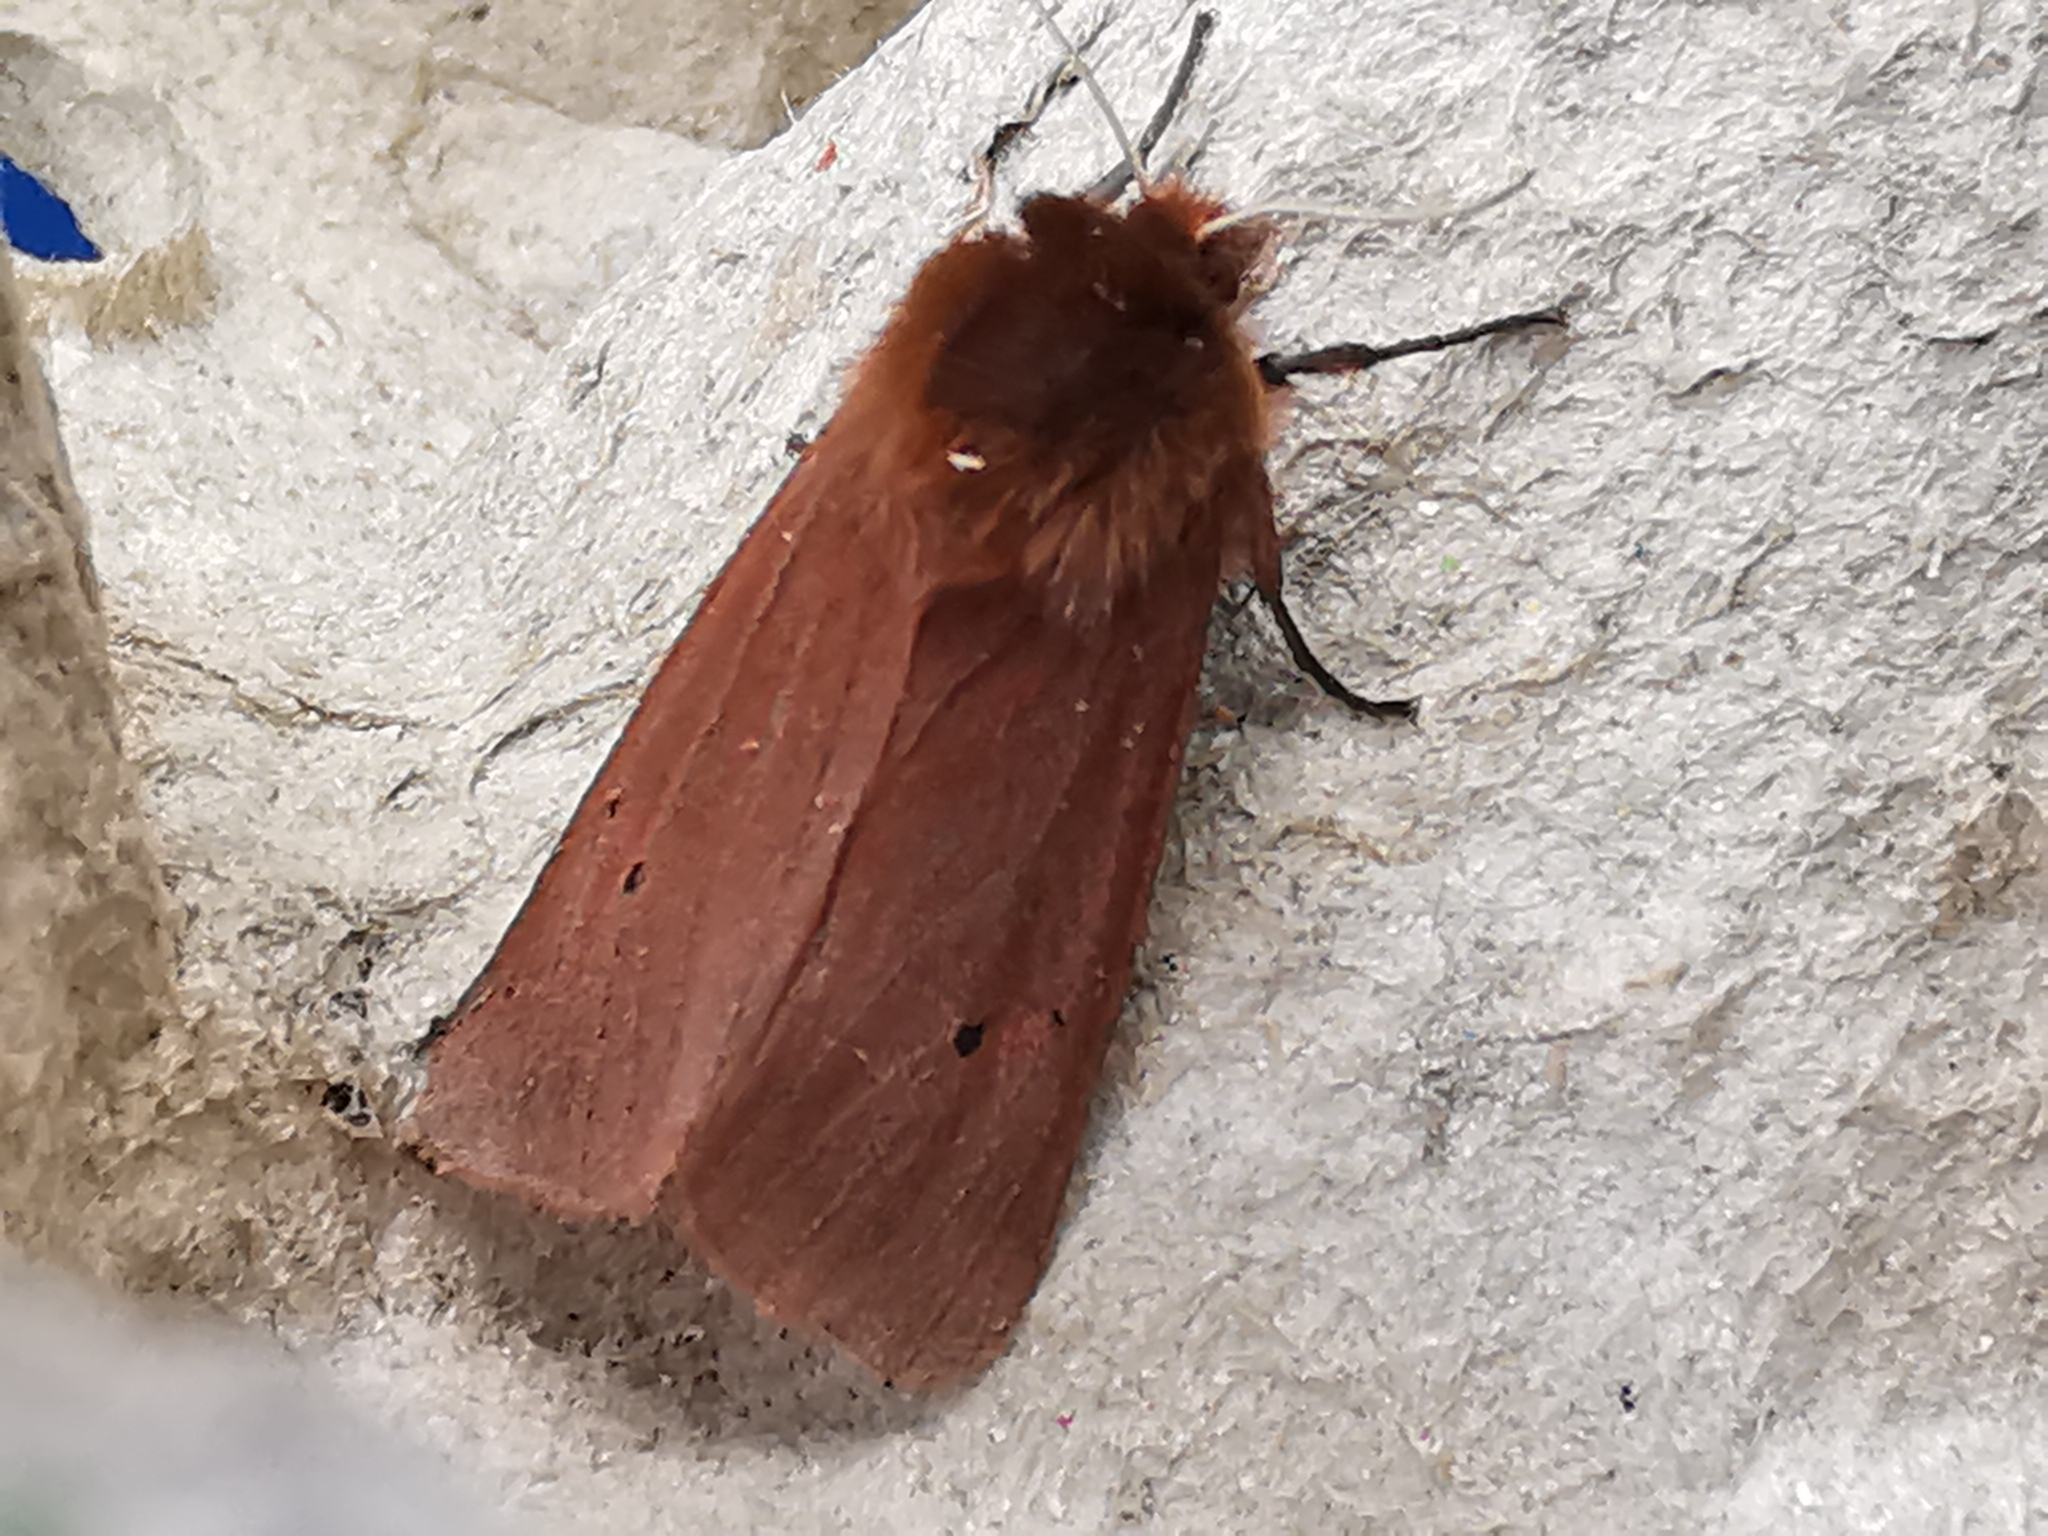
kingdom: Animalia
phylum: Arthropoda
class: Insecta
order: Lepidoptera
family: Erebidae
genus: Phragmatobia
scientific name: Phragmatobia fuliginosa
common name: Ruby tiger
